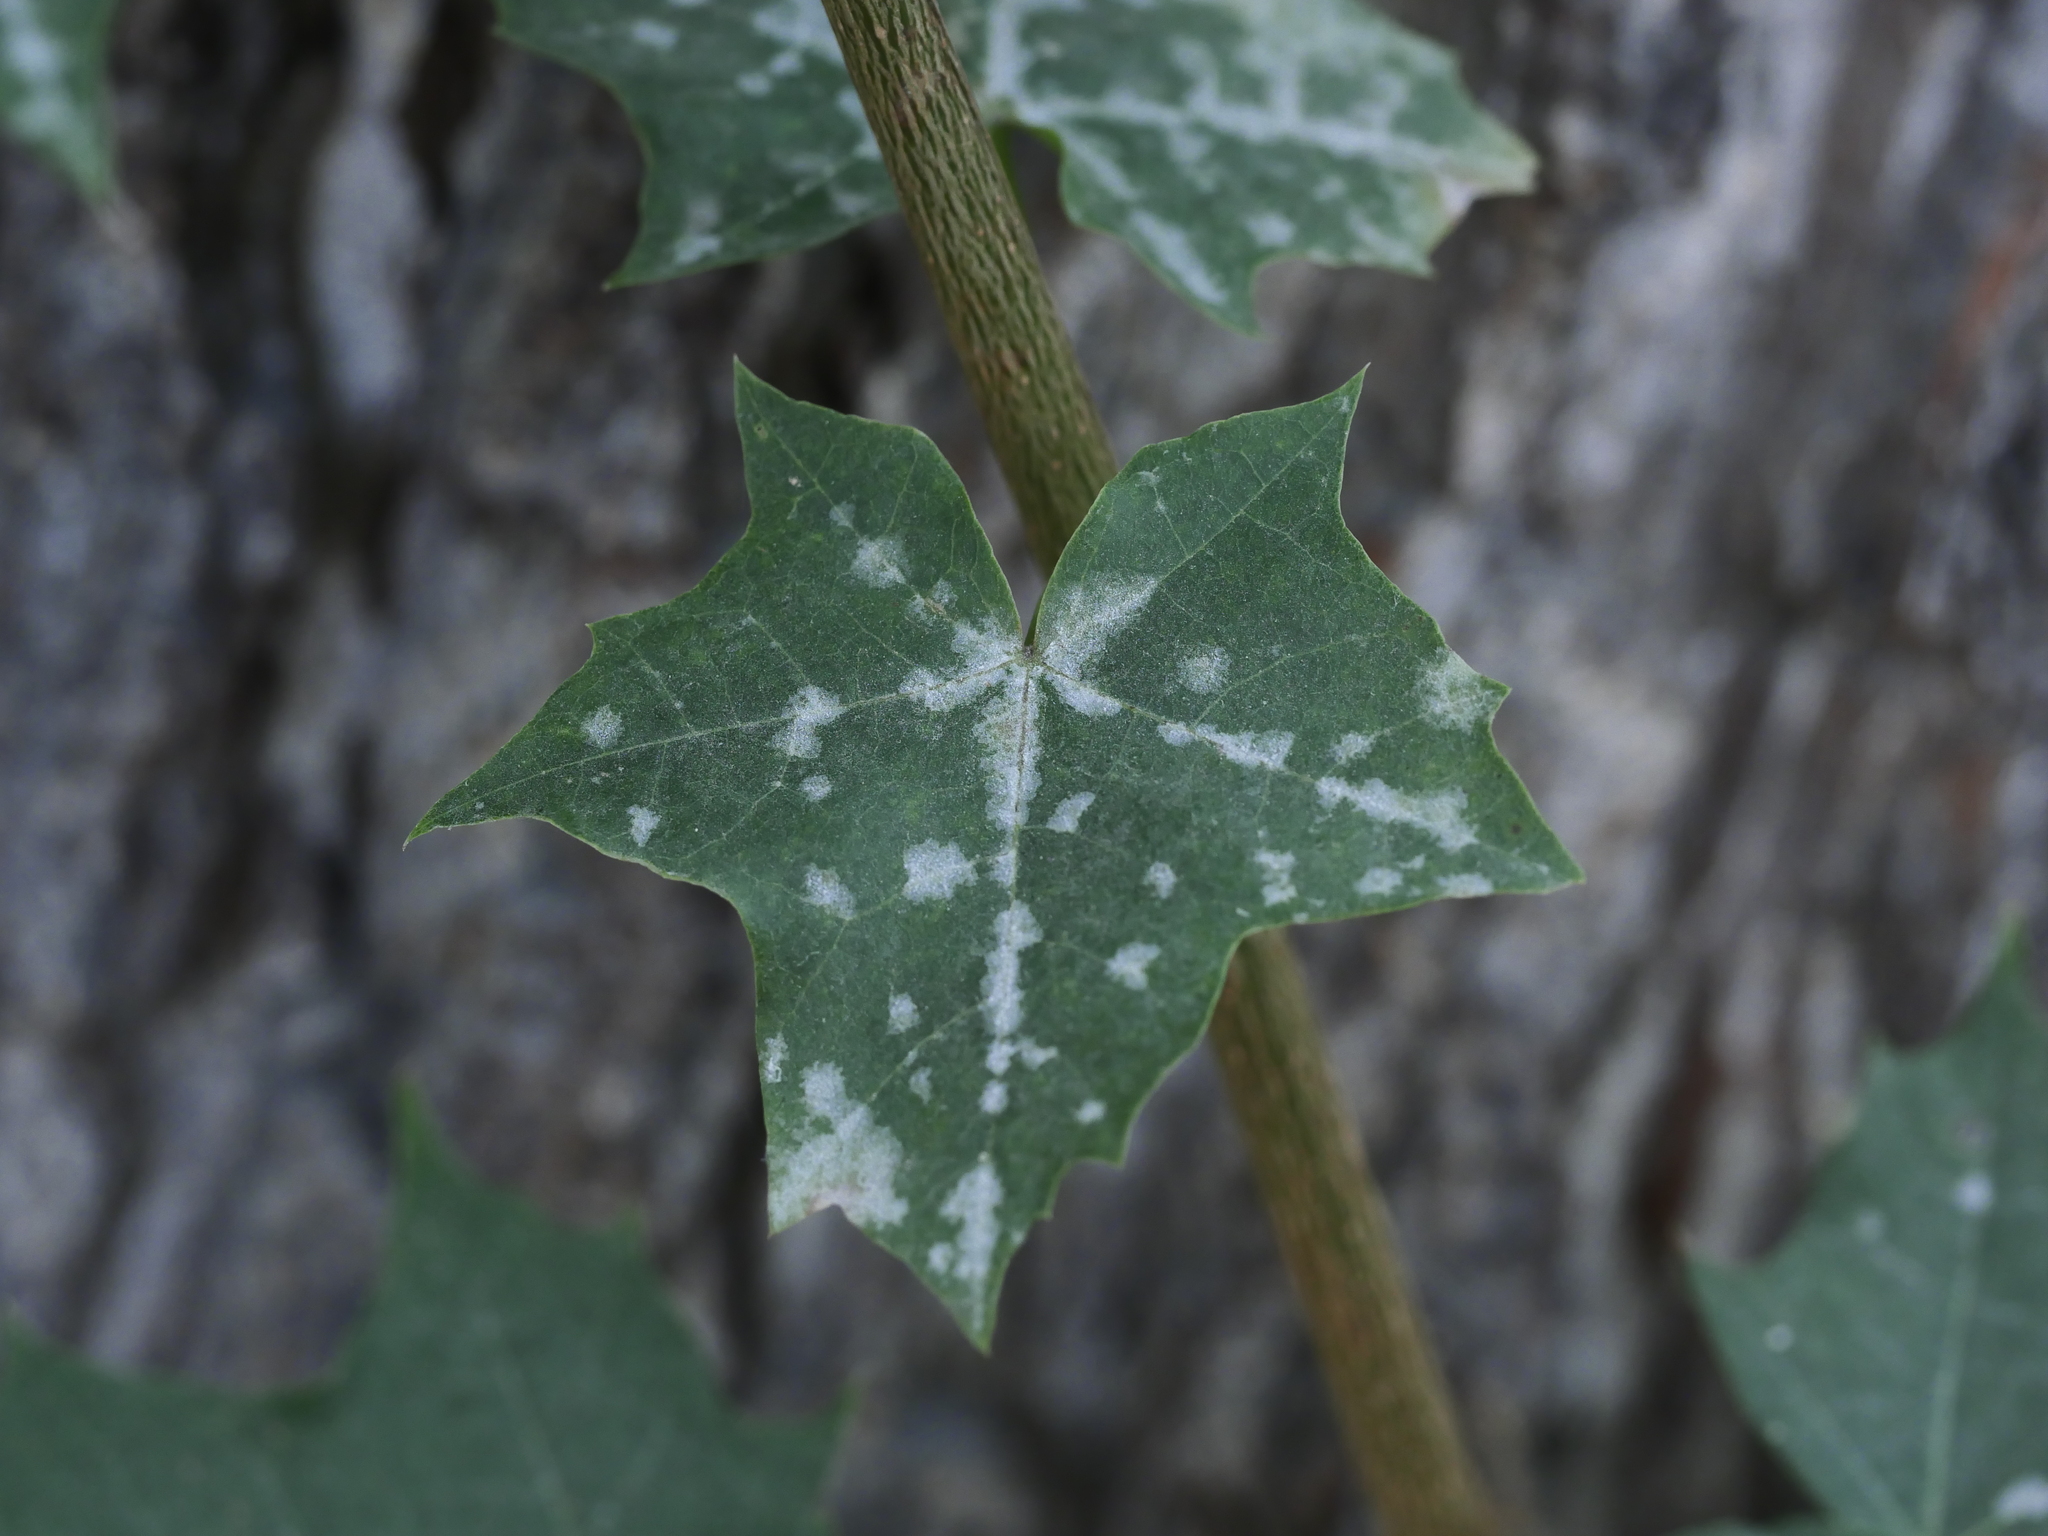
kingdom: Plantae
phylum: Tracheophyta
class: Magnoliopsida
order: Sapindales
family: Sapindaceae
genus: Acer
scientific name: Acer platanoides
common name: Norway maple
